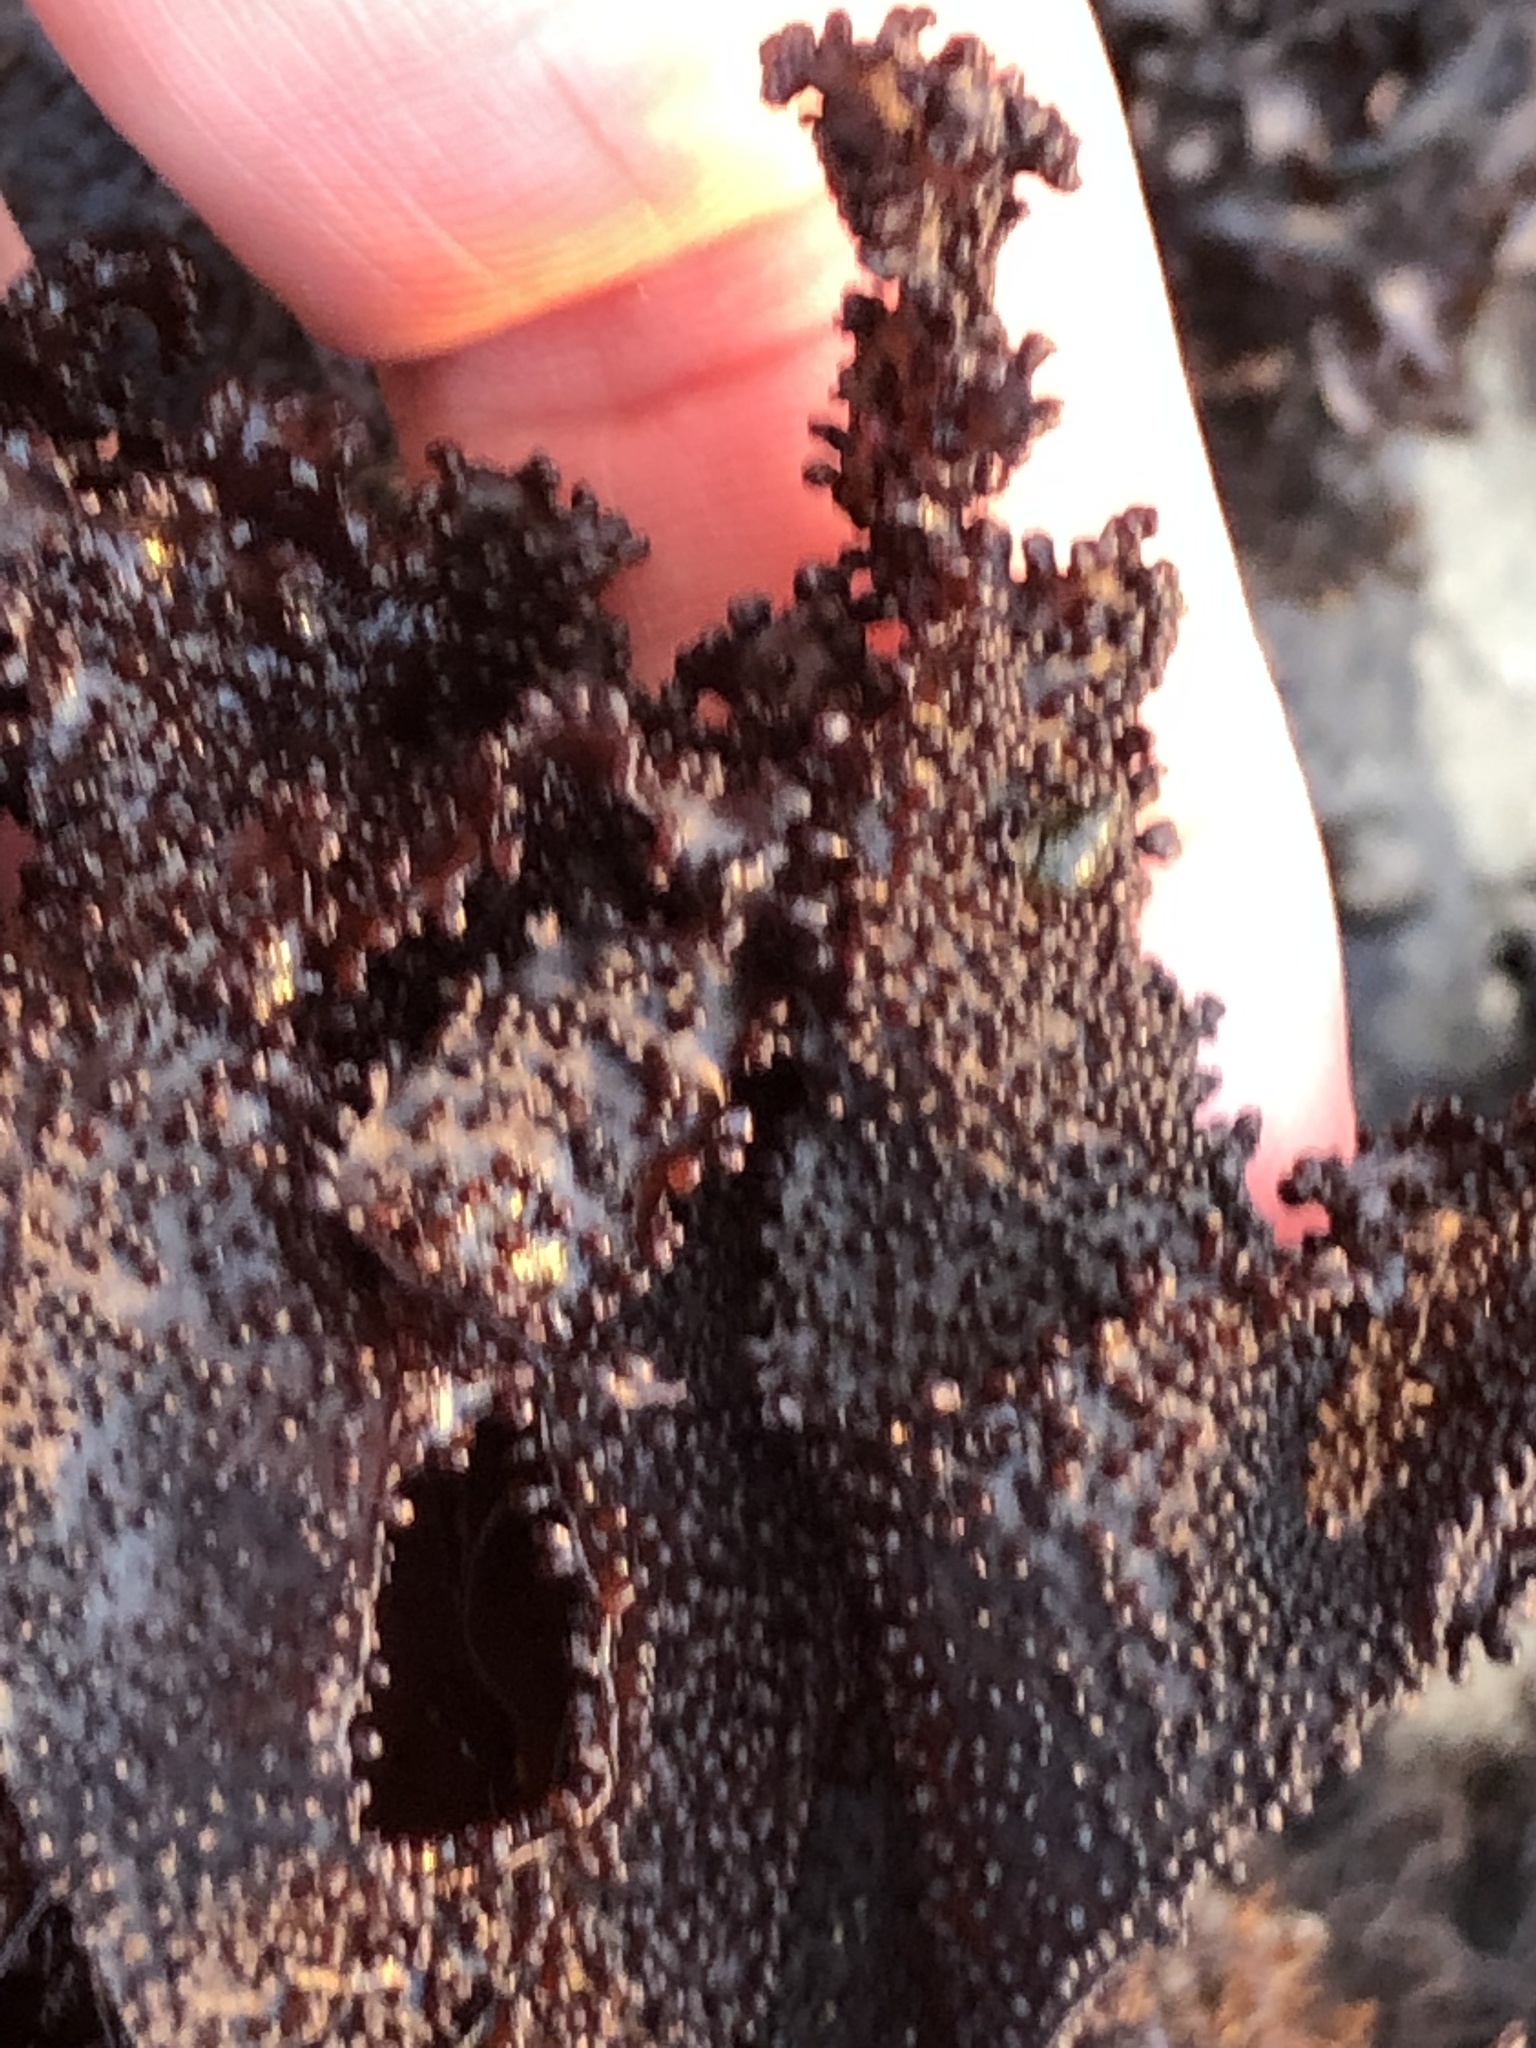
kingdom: Plantae
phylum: Rhodophyta
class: Florideophyceae
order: Gigartinales
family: Phyllophoraceae
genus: Mastocarpus
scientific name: Mastocarpus papillatus
